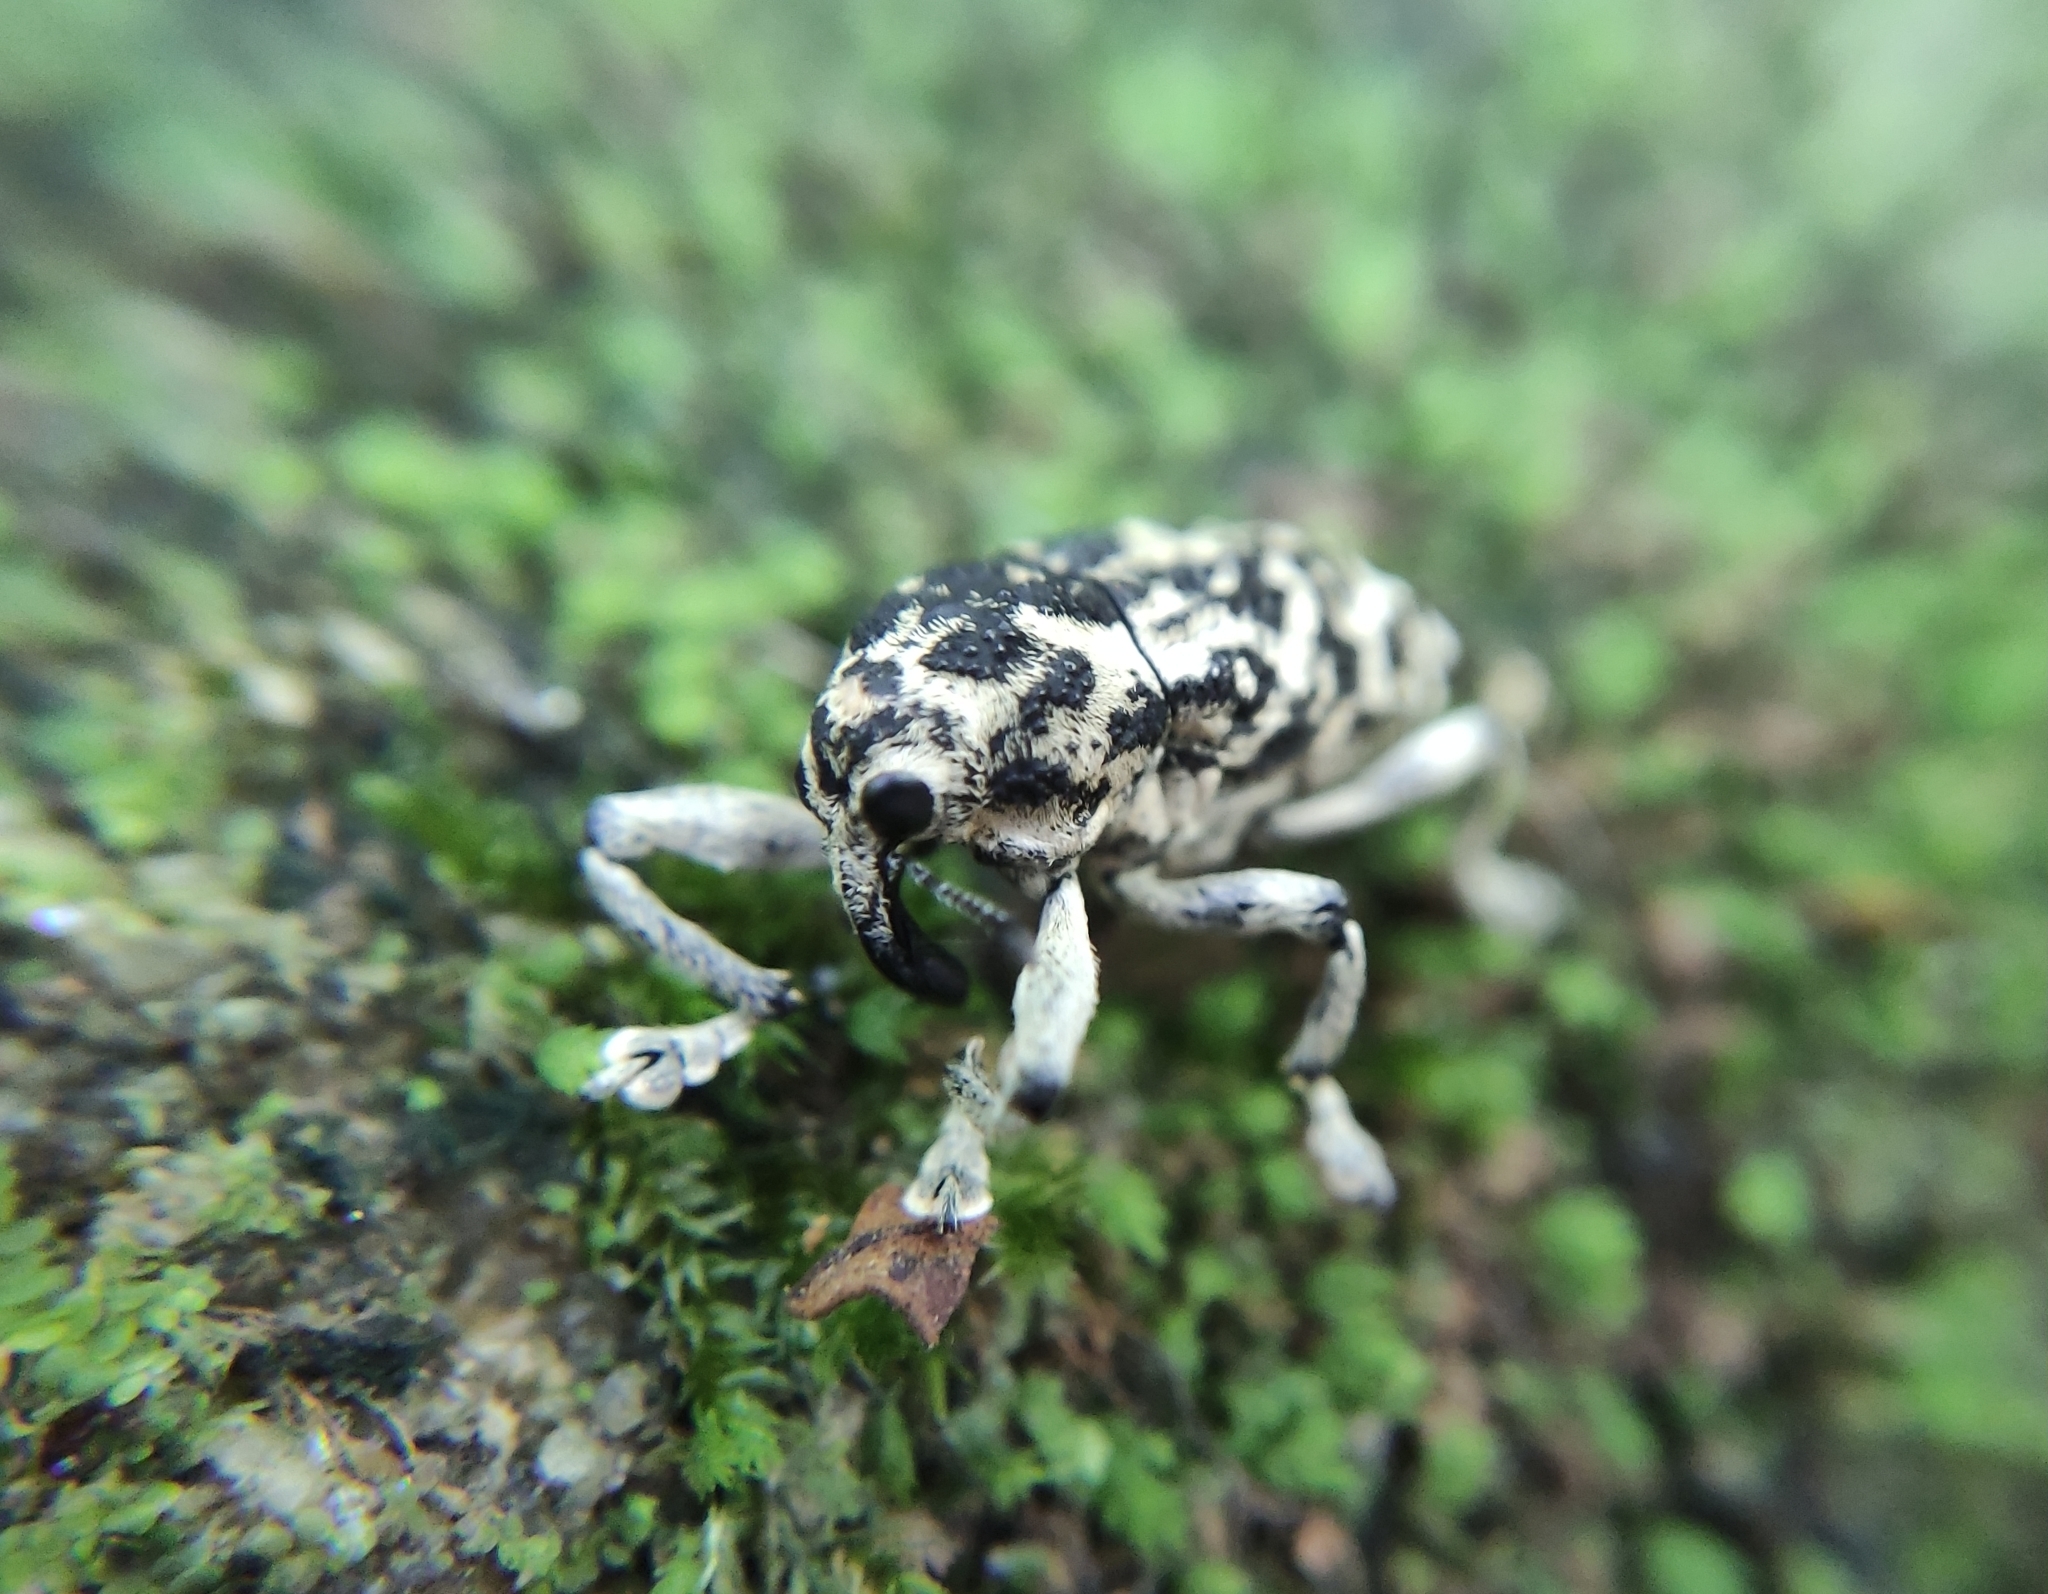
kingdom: Animalia
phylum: Arthropoda
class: Insecta
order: Coleoptera
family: Curculionidae
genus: Amerhinus
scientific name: Amerhinus olivieri
